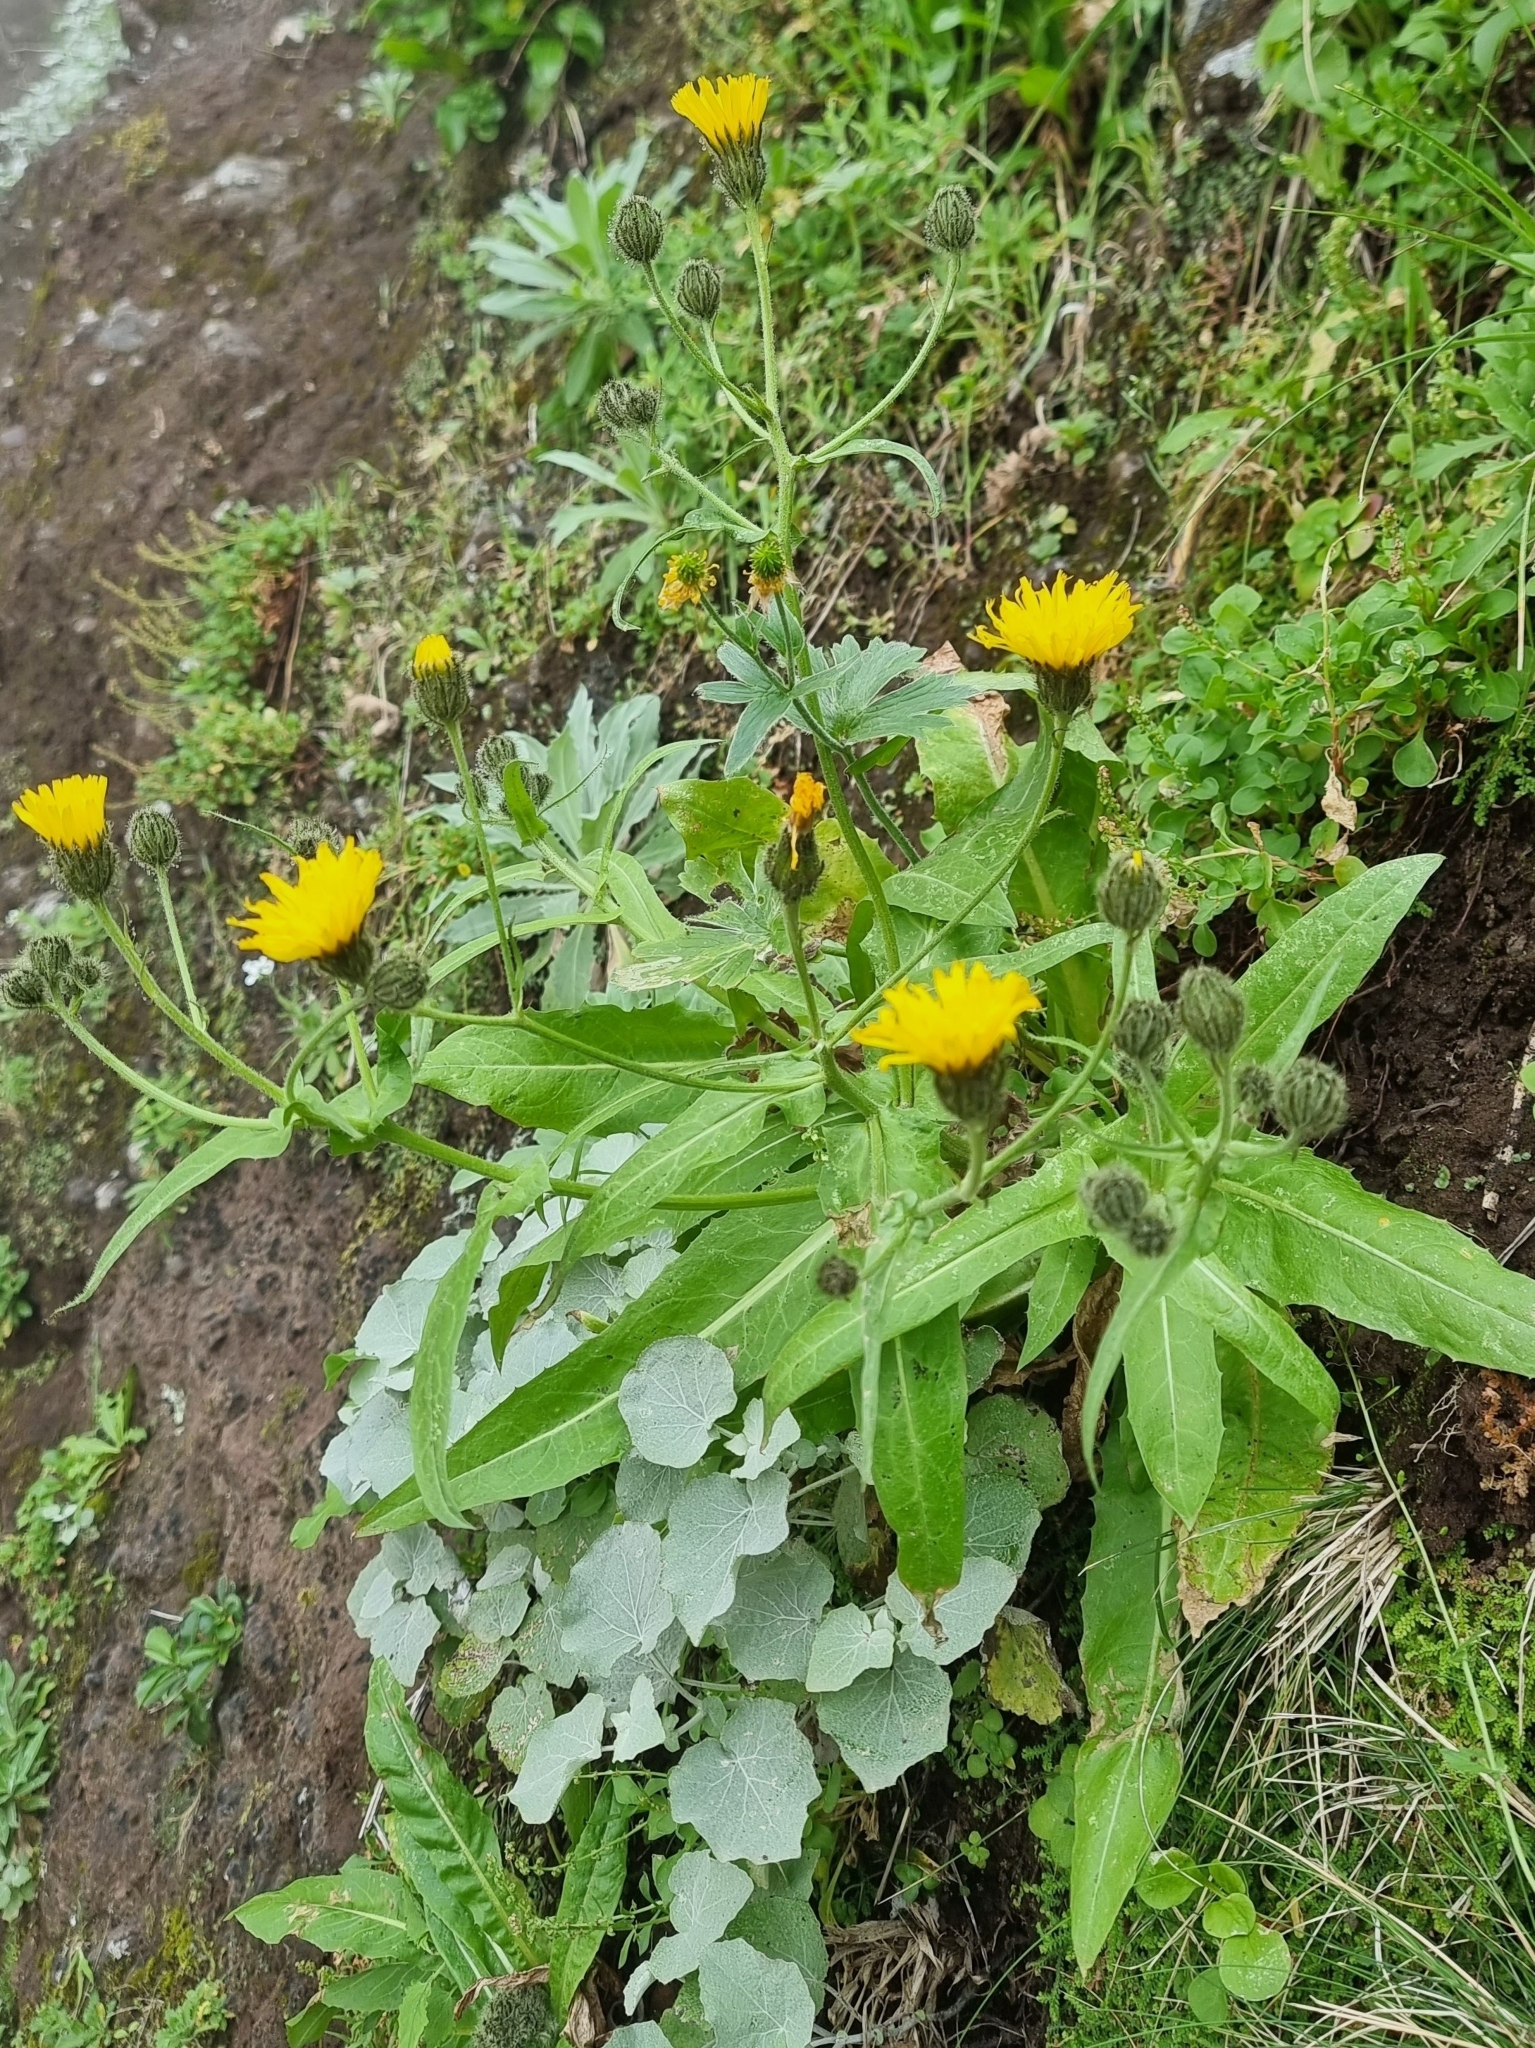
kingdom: Plantae
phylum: Tracheophyta
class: Magnoliopsida
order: Asterales
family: Asteraceae
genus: Crepis
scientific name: Crepis vesicaria
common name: Beaked hawksbeard
